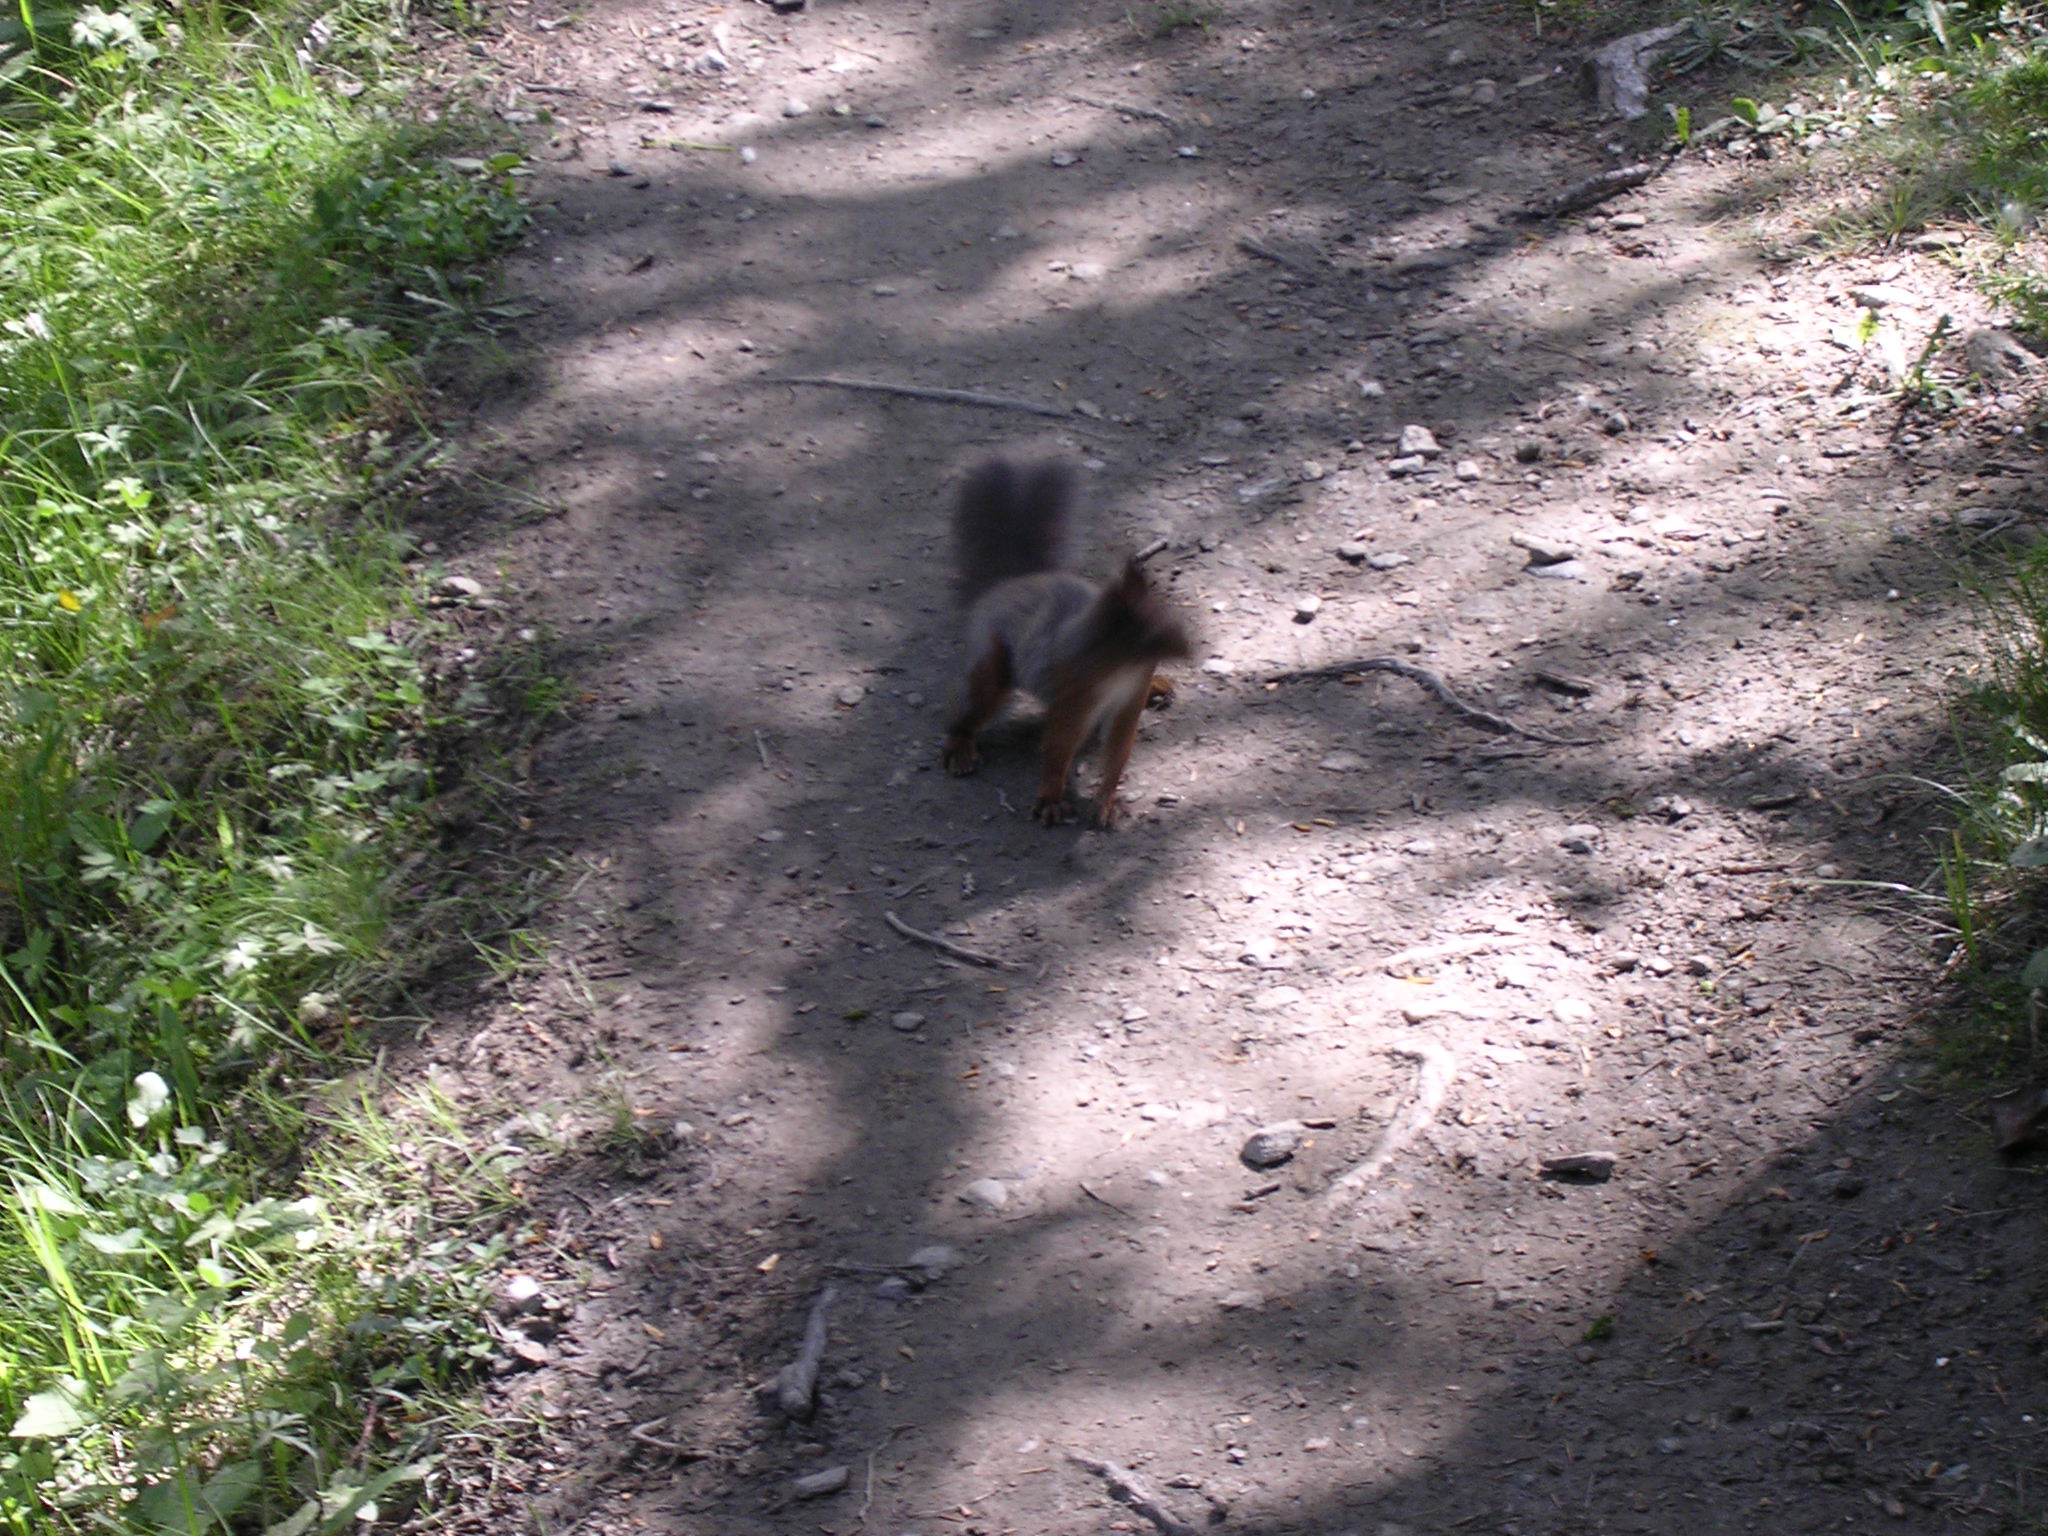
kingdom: Animalia
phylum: Chordata
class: Mammalia
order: Rodentia
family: Sciuridae
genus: Sciurus
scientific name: Sciurus vulgaris
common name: Eurasian red squirrel
